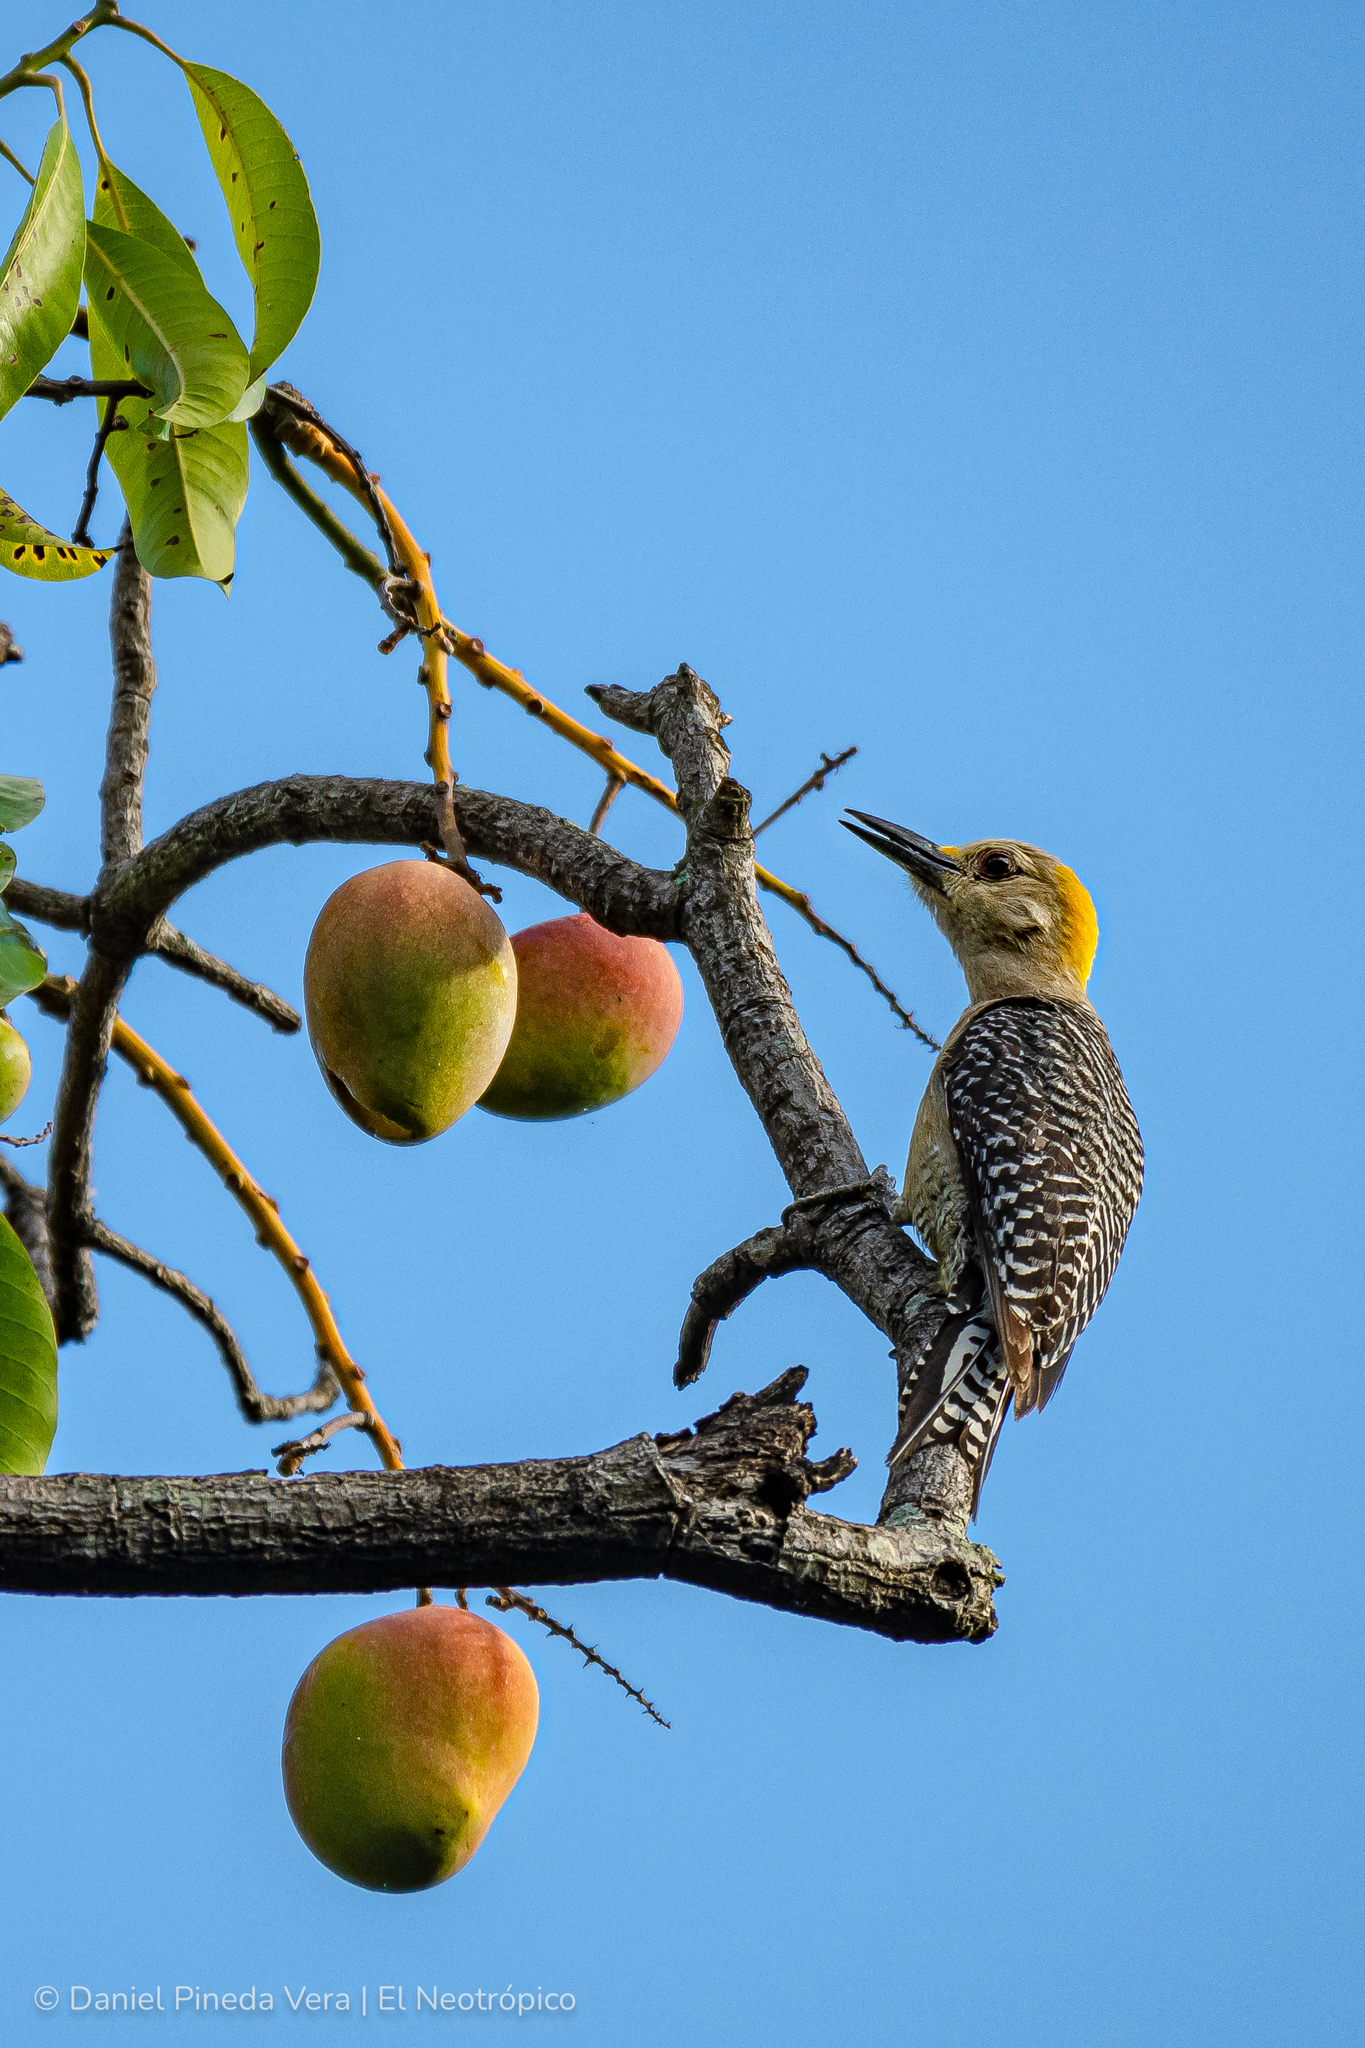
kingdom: Animalia
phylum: Chordata
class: Aves
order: Piciformes
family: Picidae
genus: Melanerpes
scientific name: Melanerpes aurifrons
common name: Golden-fronted woodpecker
